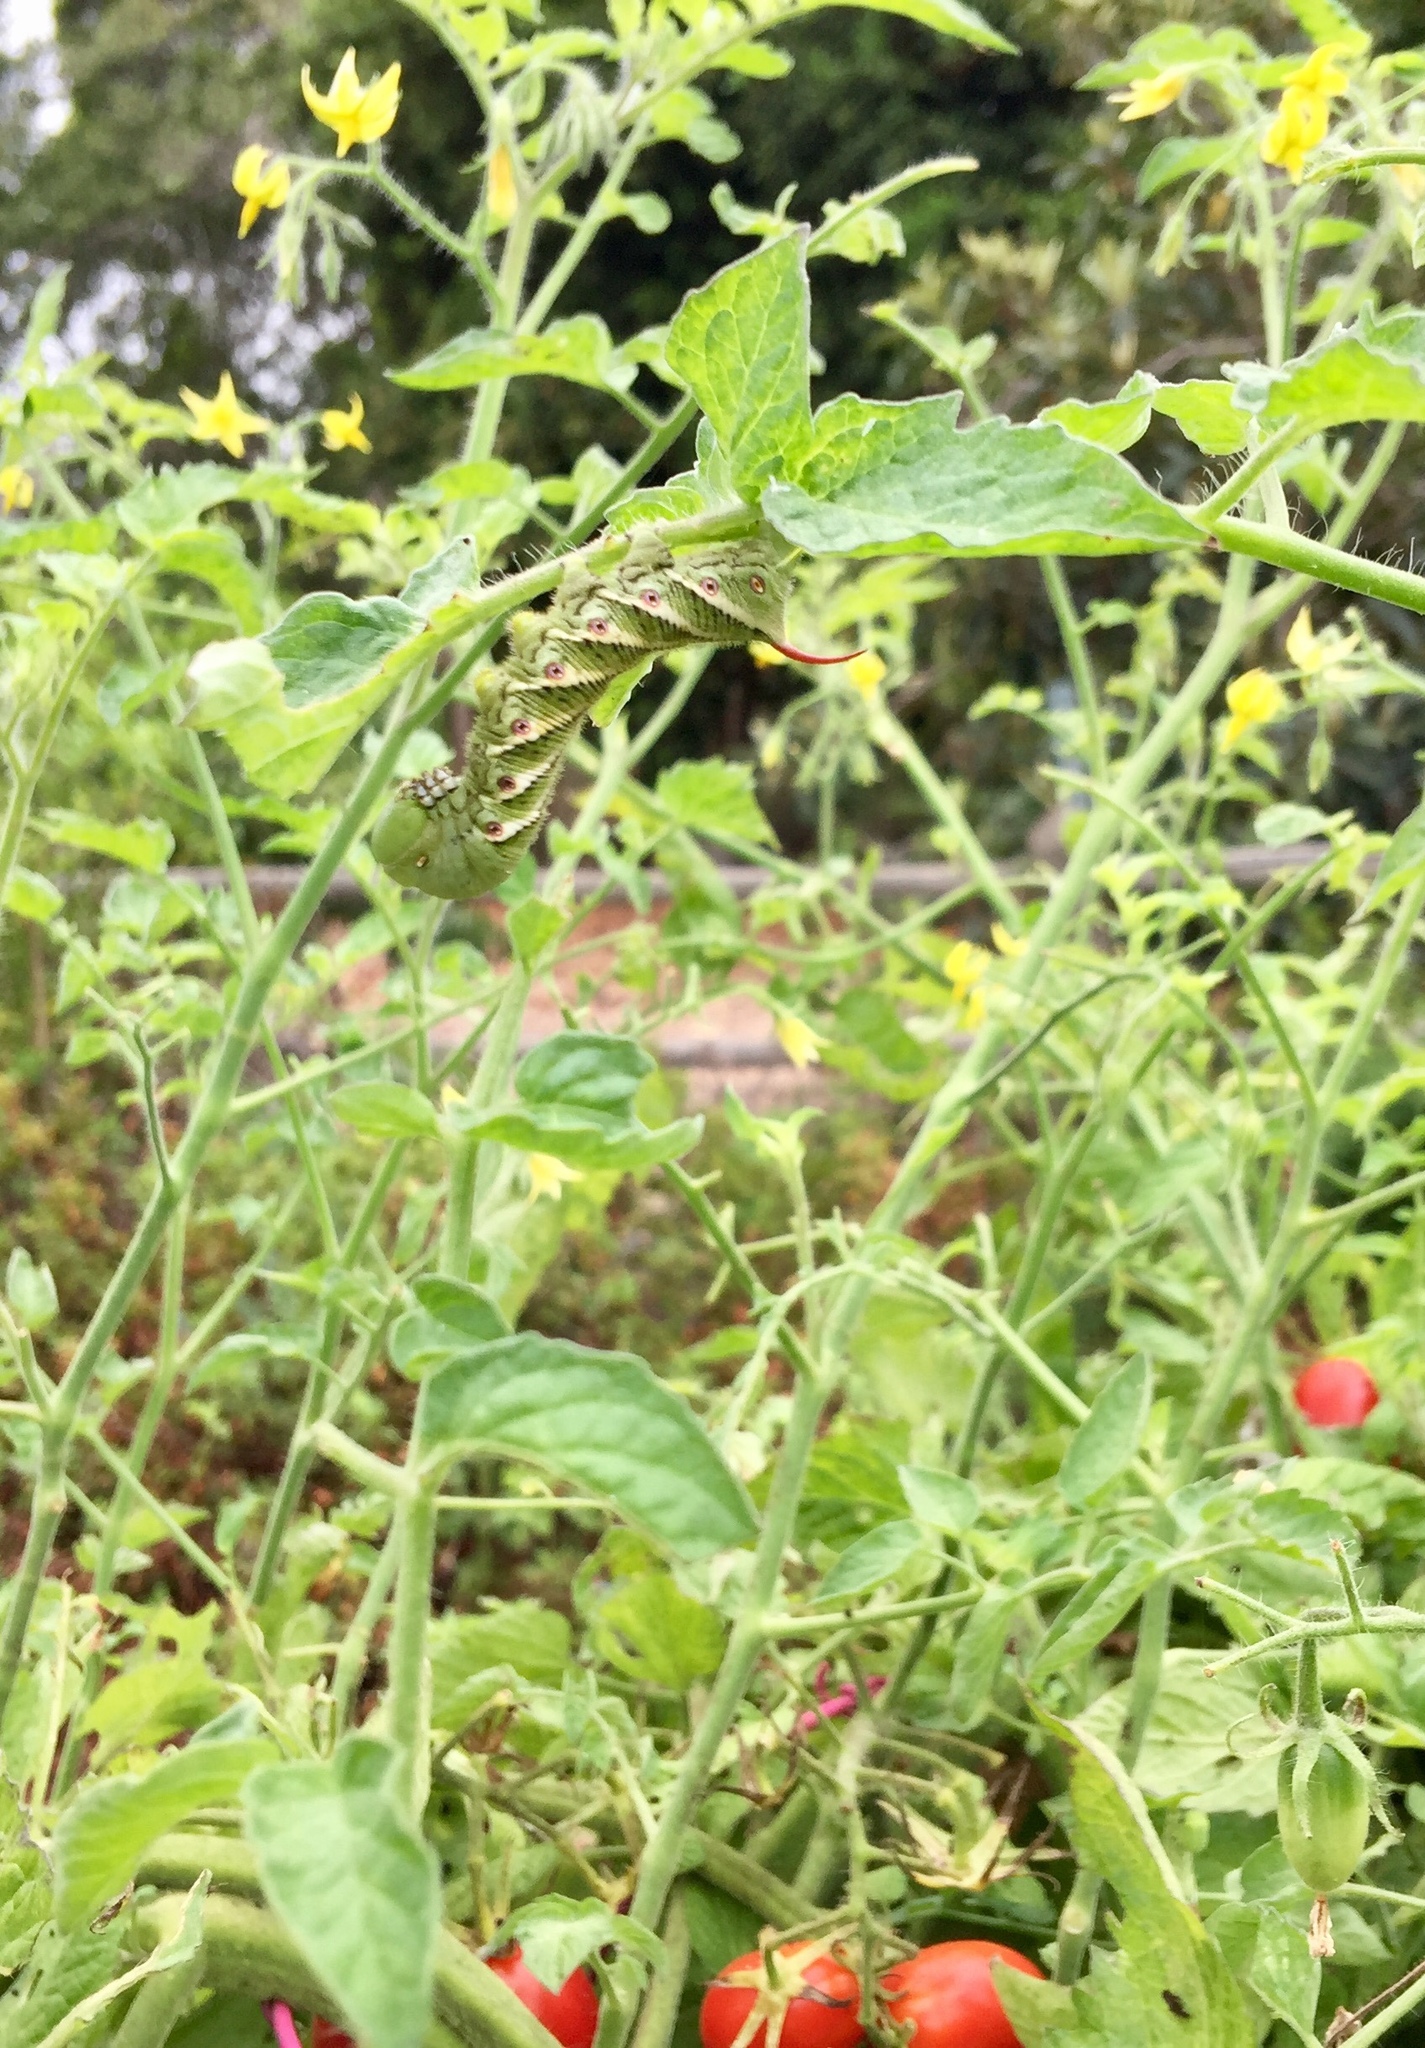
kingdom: Animalia
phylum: Arthropoda
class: Insecta
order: Lepidoptera
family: Sphingidae
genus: Manduca
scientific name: Manduca sexta
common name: Carolina sphinx
